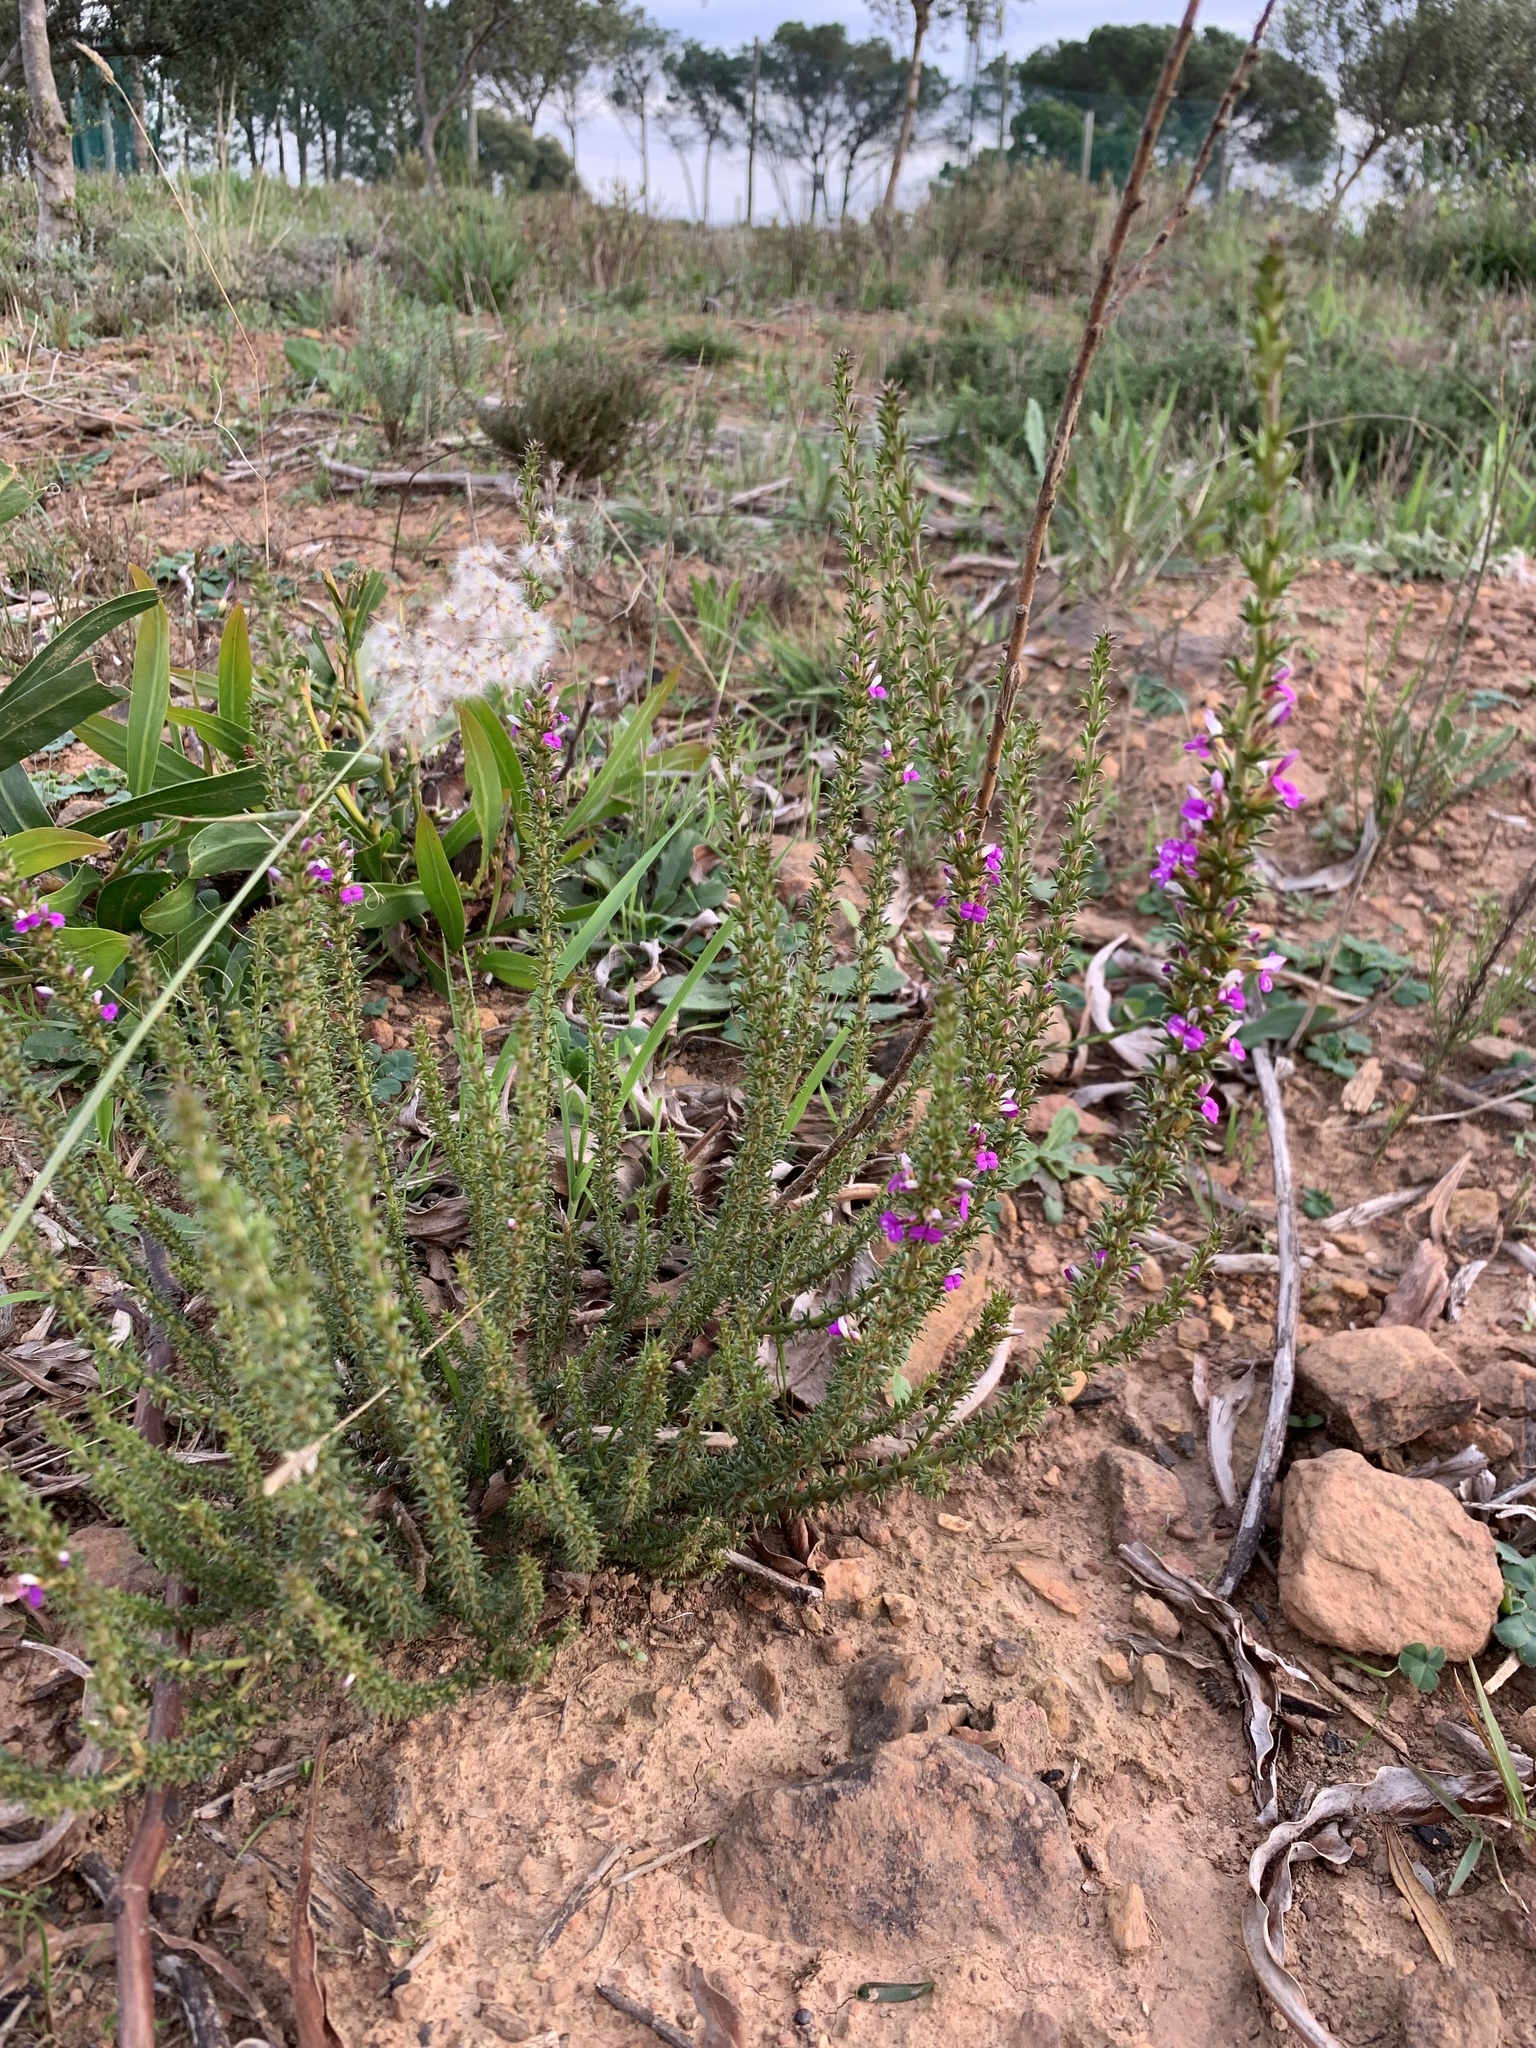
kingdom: Plantae
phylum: Tracheophyta
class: Magnoliopsida
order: Fabales
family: Polygalaceae
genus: Muraltia
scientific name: Muraltia heisteria
